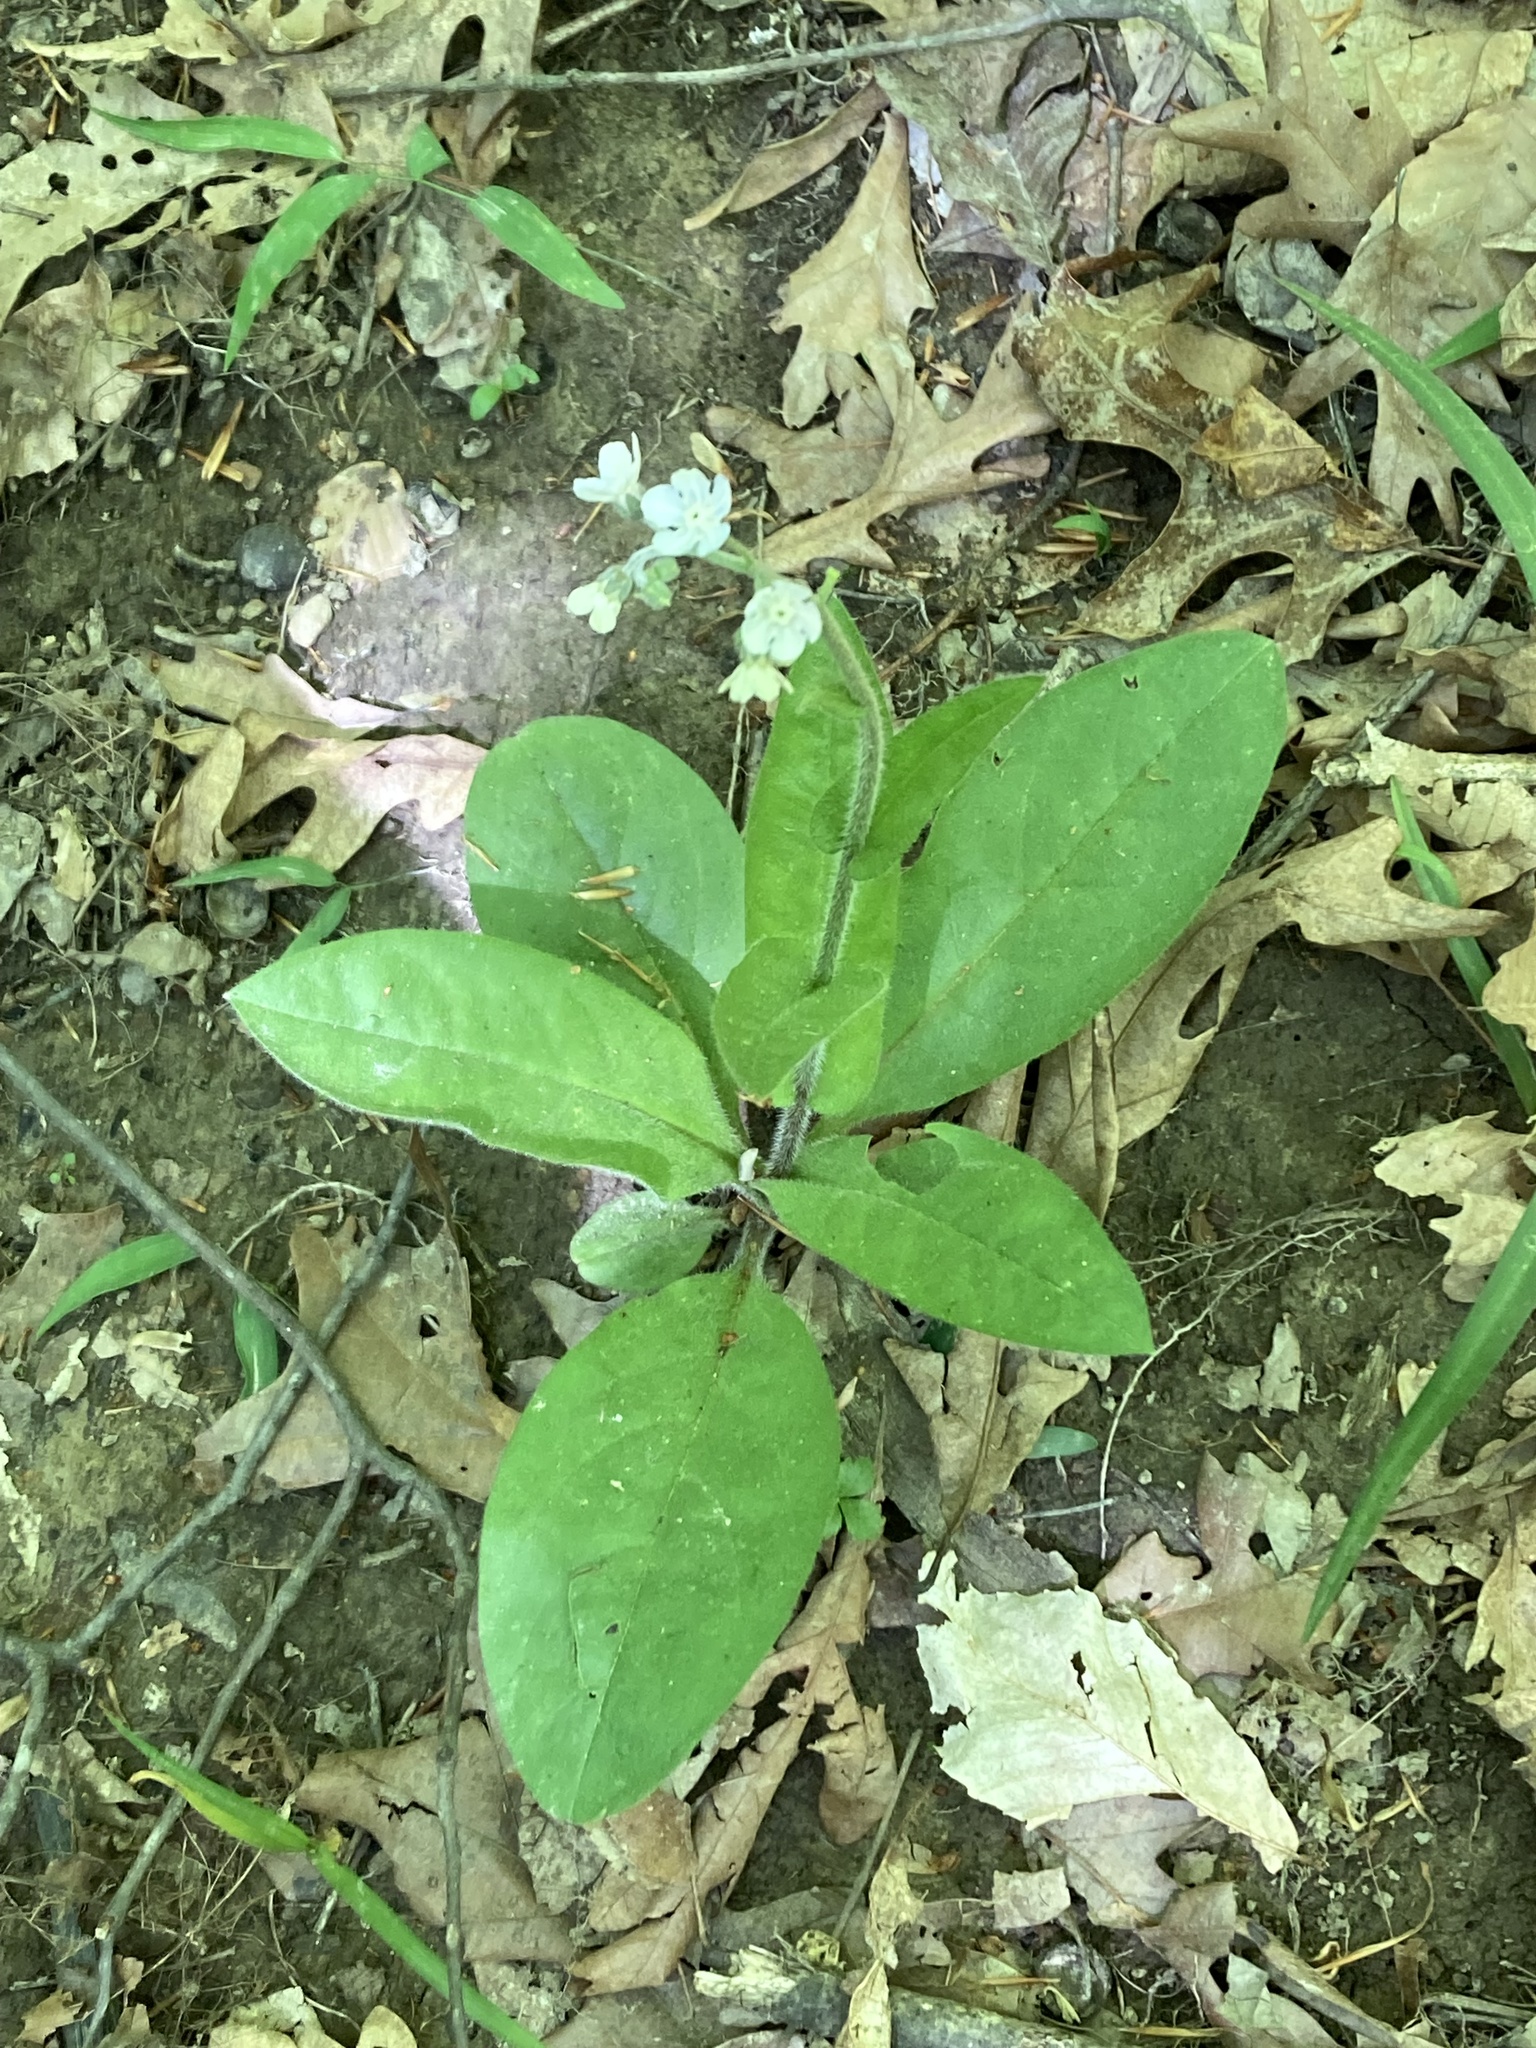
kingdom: Plantae
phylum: Tracheophyta
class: Magnoliopsida
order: Boraginales
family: Boraginaceae
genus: Andersonglossum
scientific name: Andersonglossum virginianum
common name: Wild comfrey
